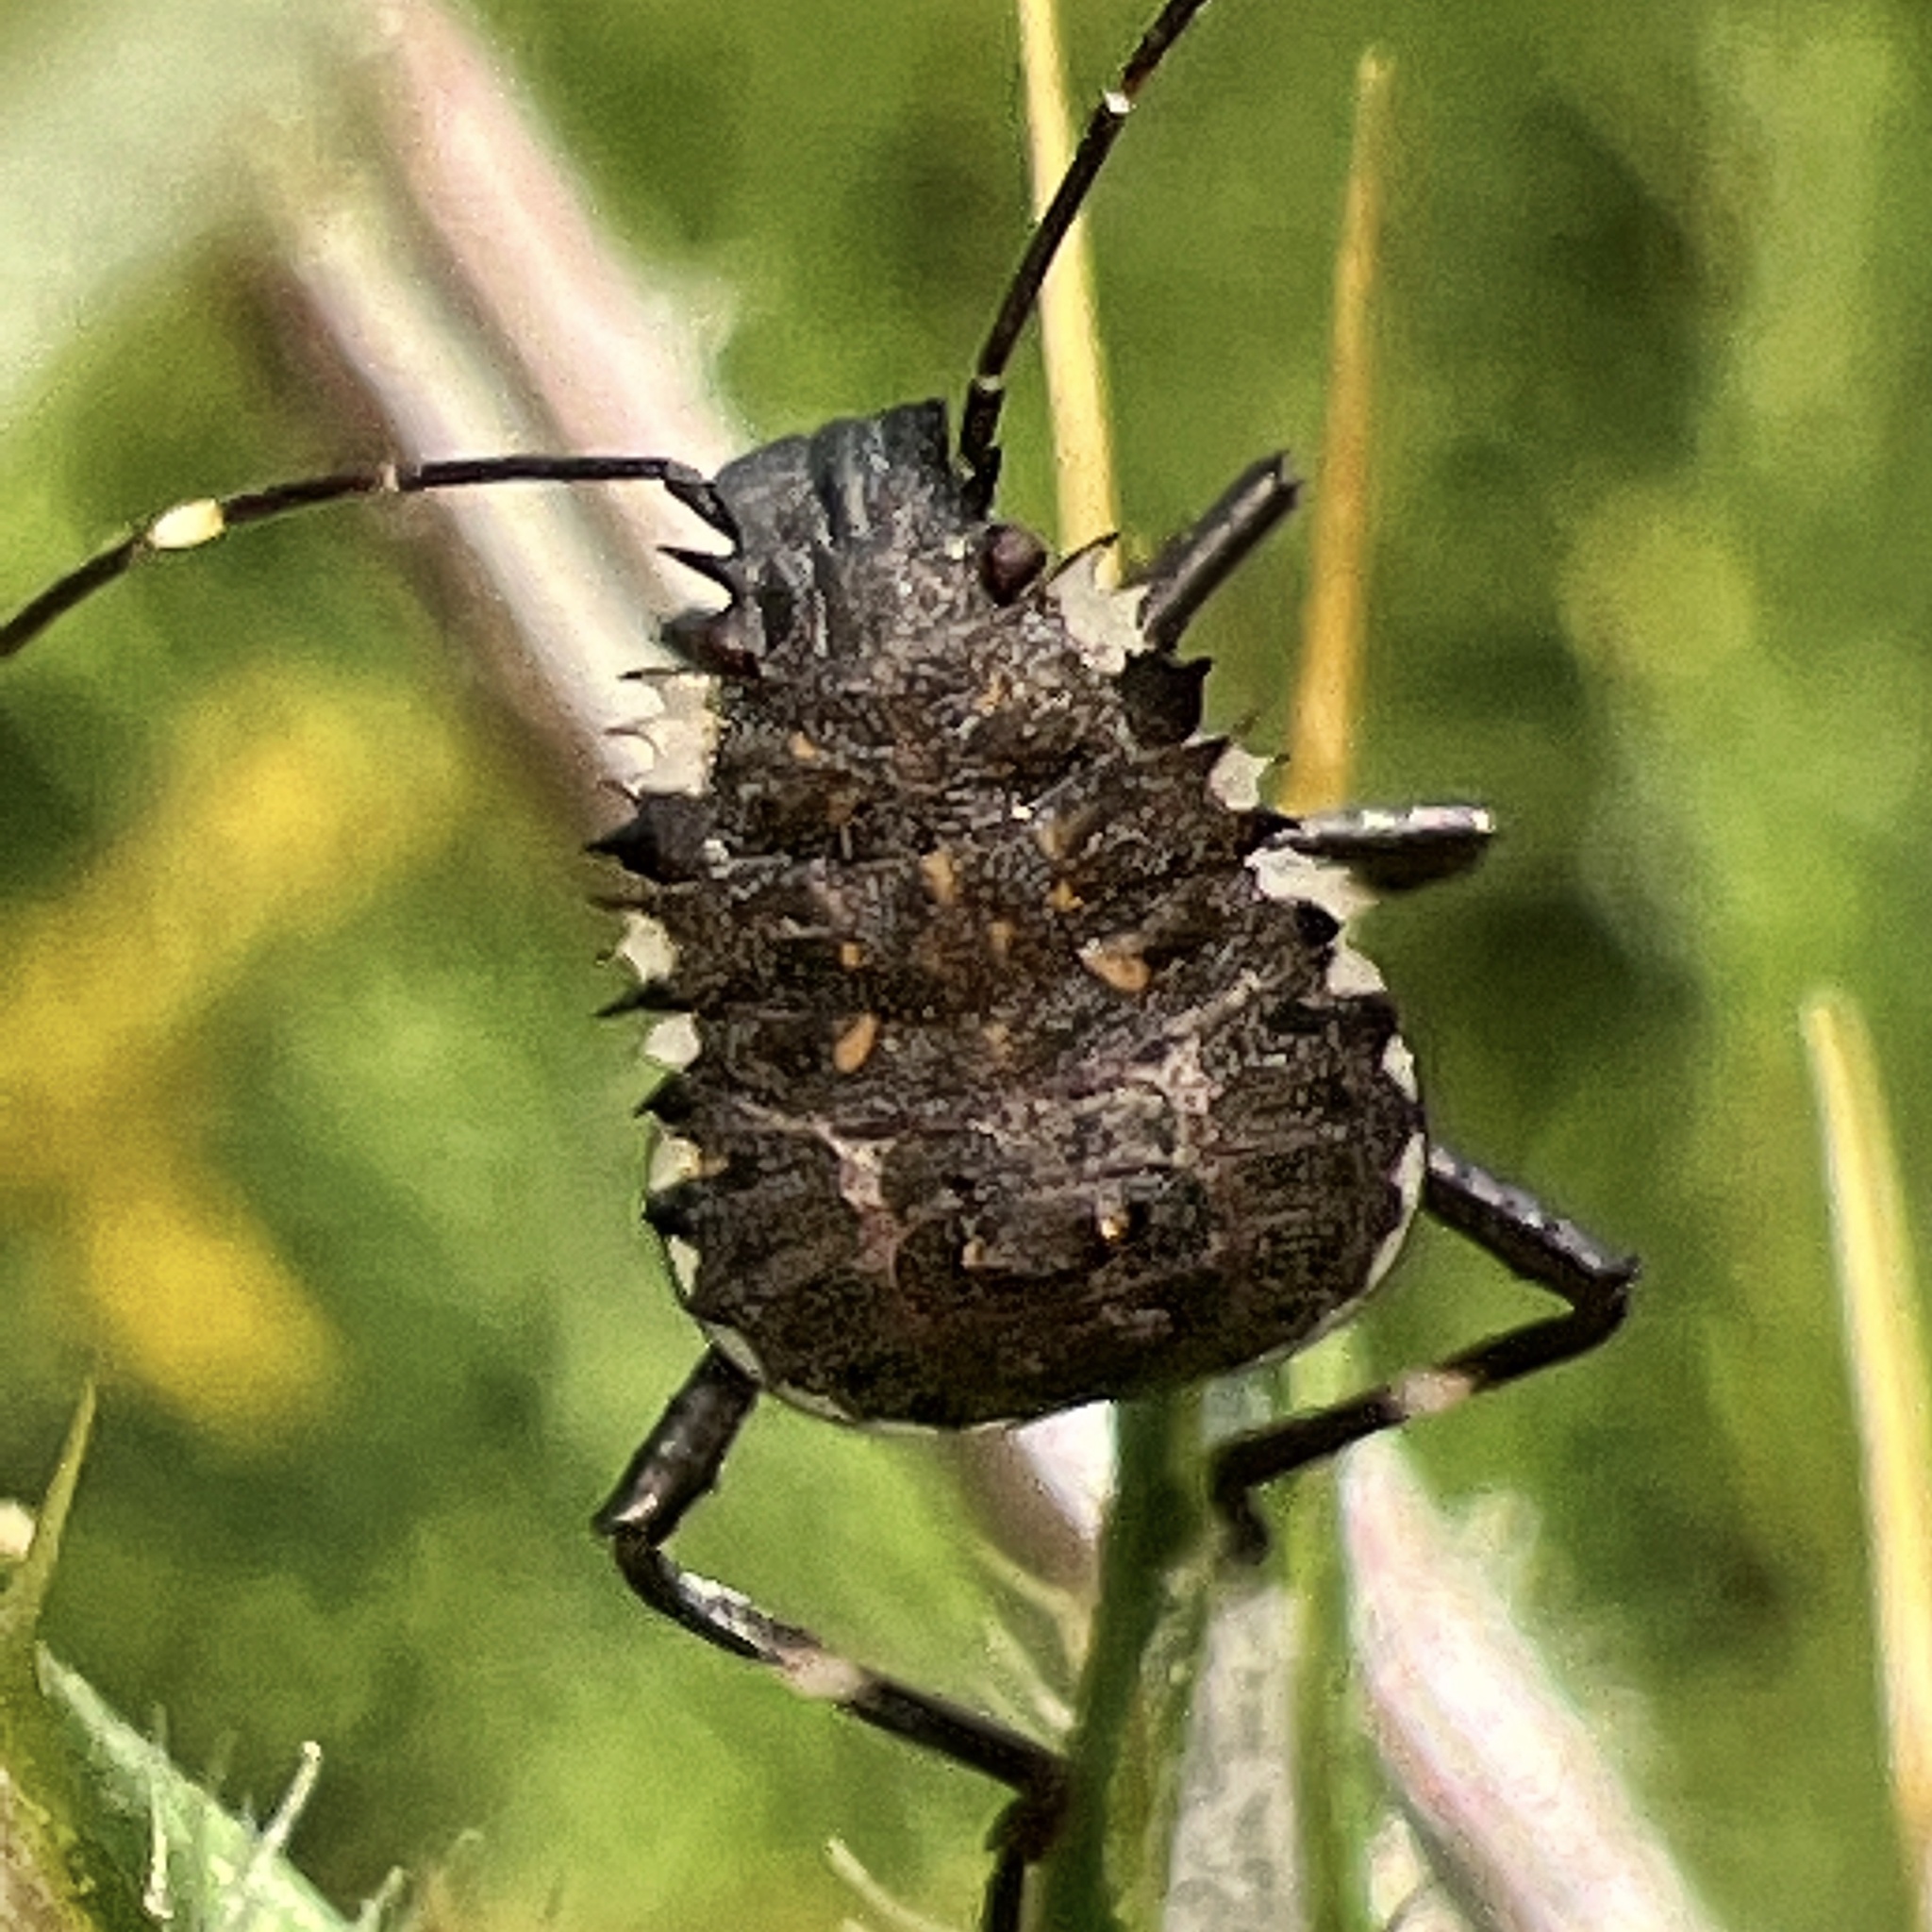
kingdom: Animalia
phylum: Arthropoda
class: Insecta
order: Hemiptera
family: Pentatomidae
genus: Halyomorpha
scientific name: Halyomorpha halys
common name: Brown marmorated stink bug
